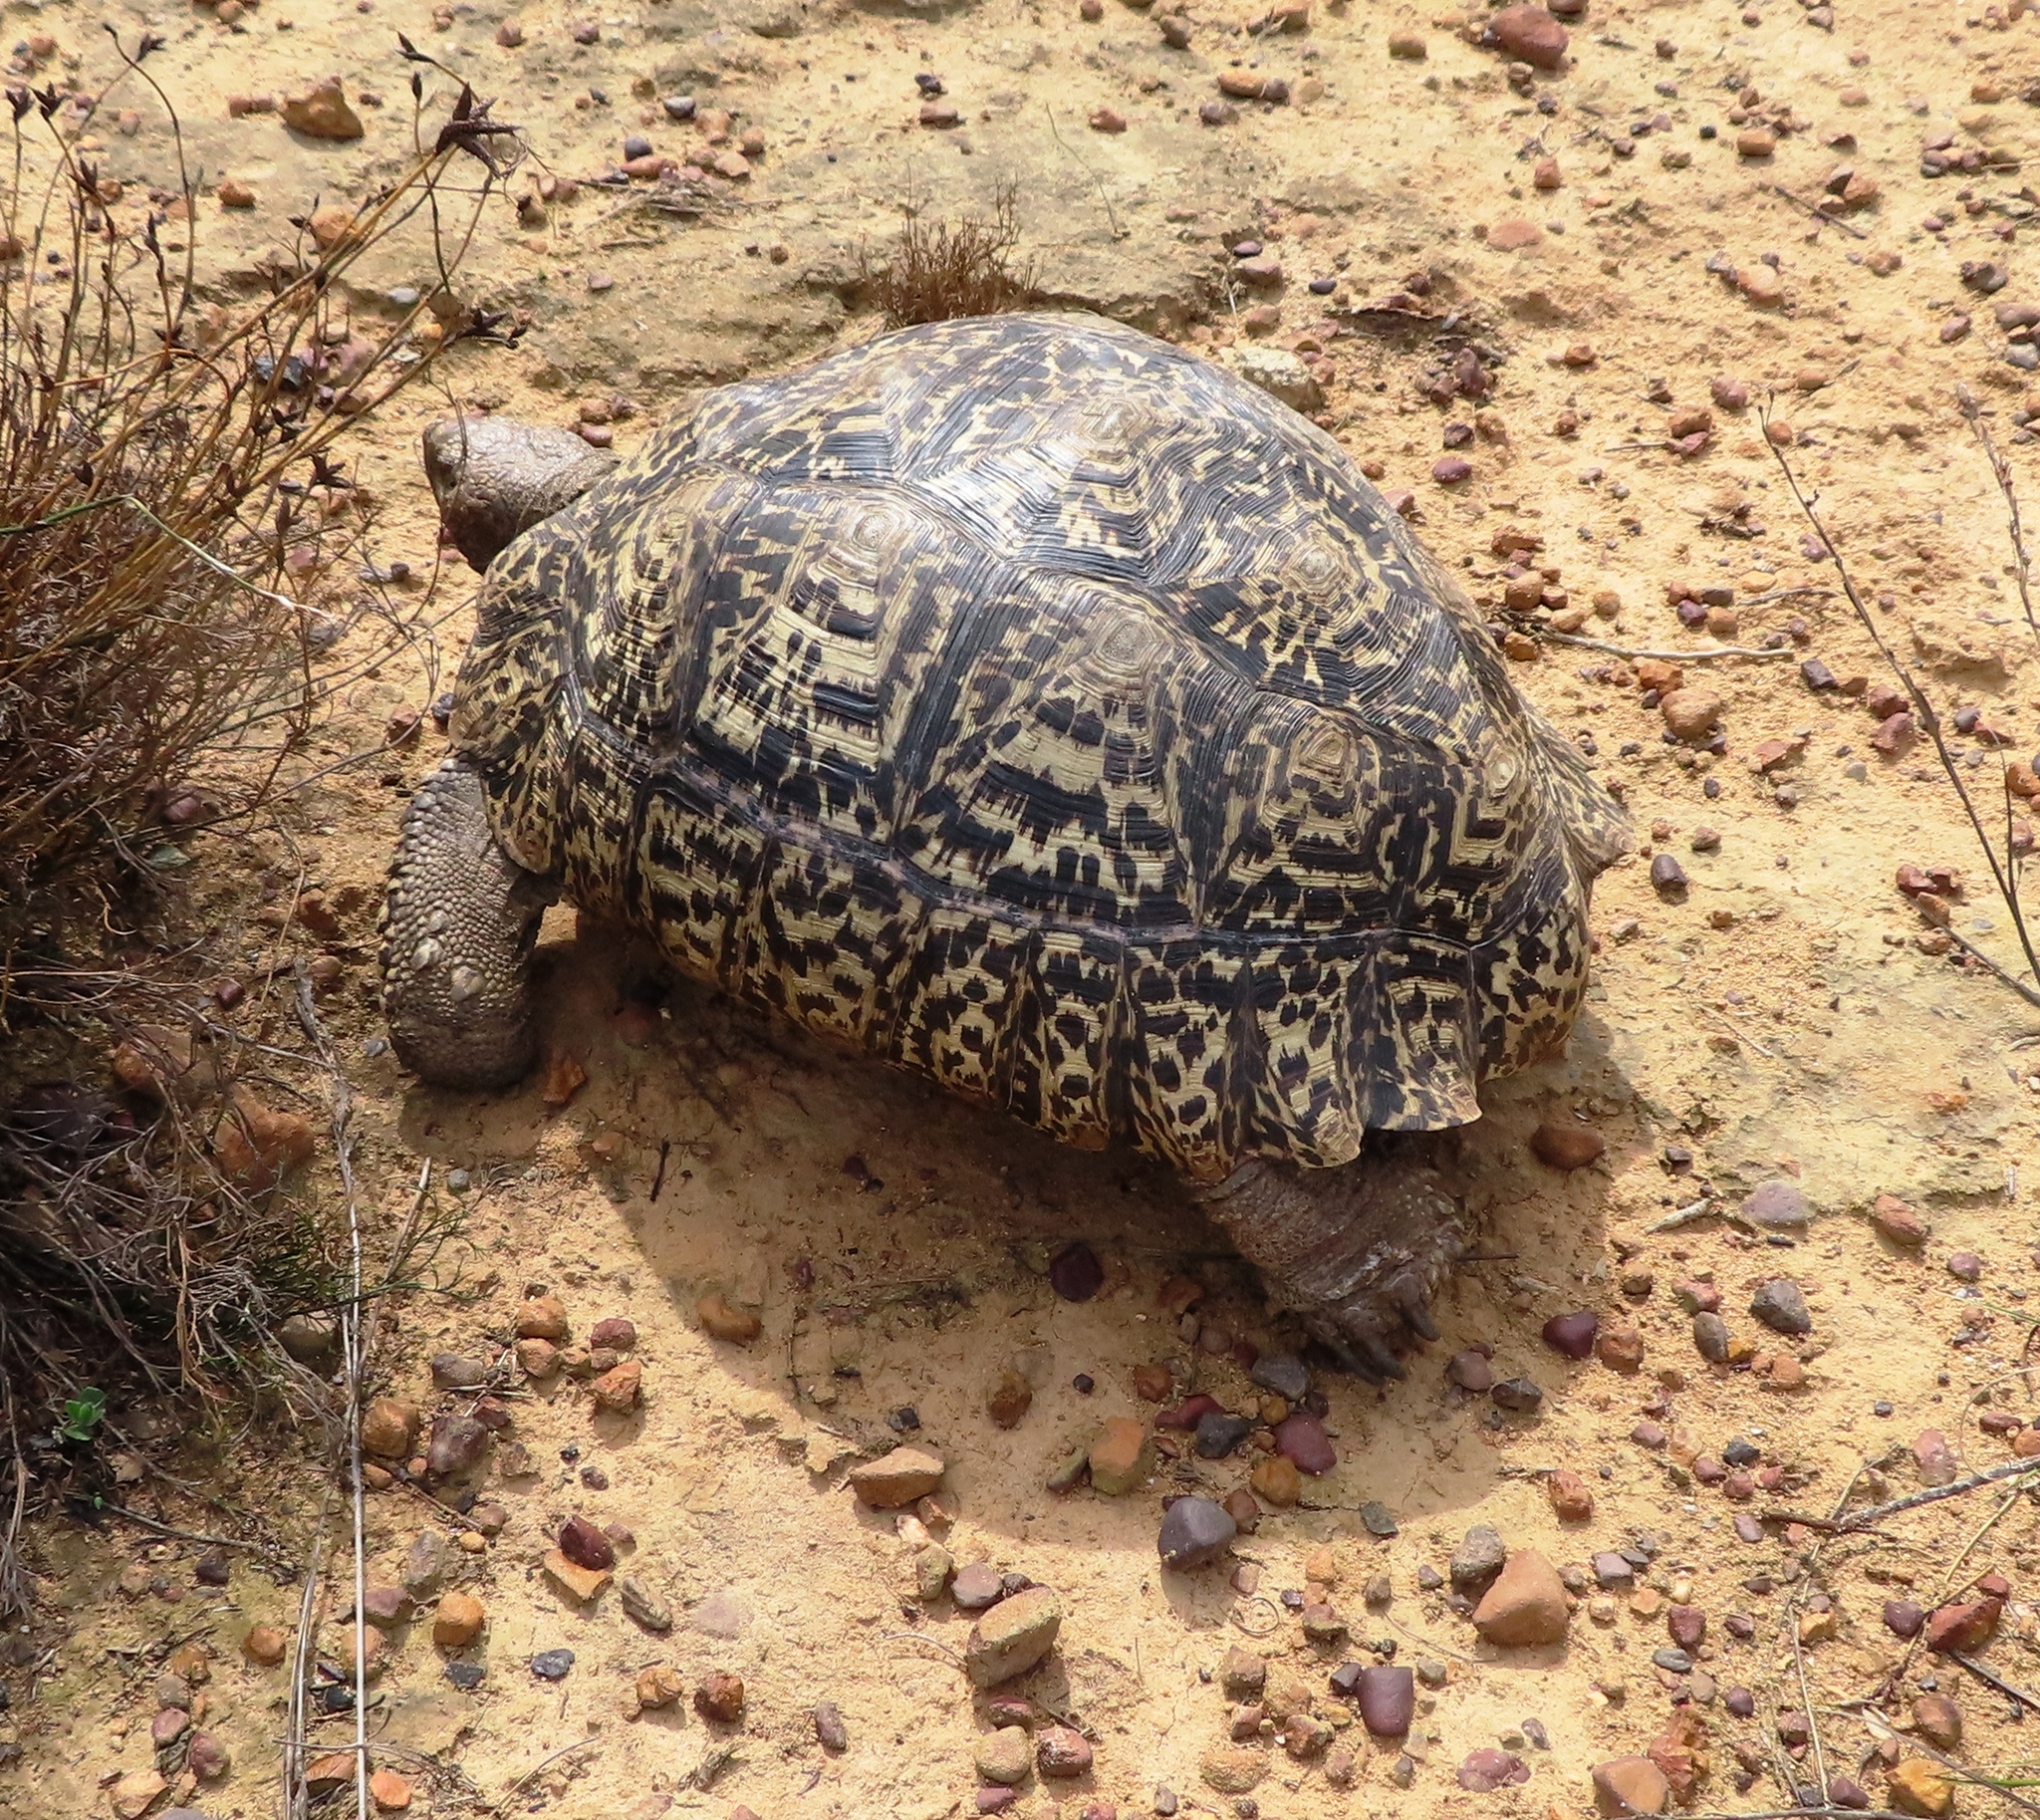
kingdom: Animalia
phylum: Chordata
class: Testudines
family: Testudinidae
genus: Stigmochelys
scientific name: Stigmochelys pardalis
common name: Leopard tortoise
